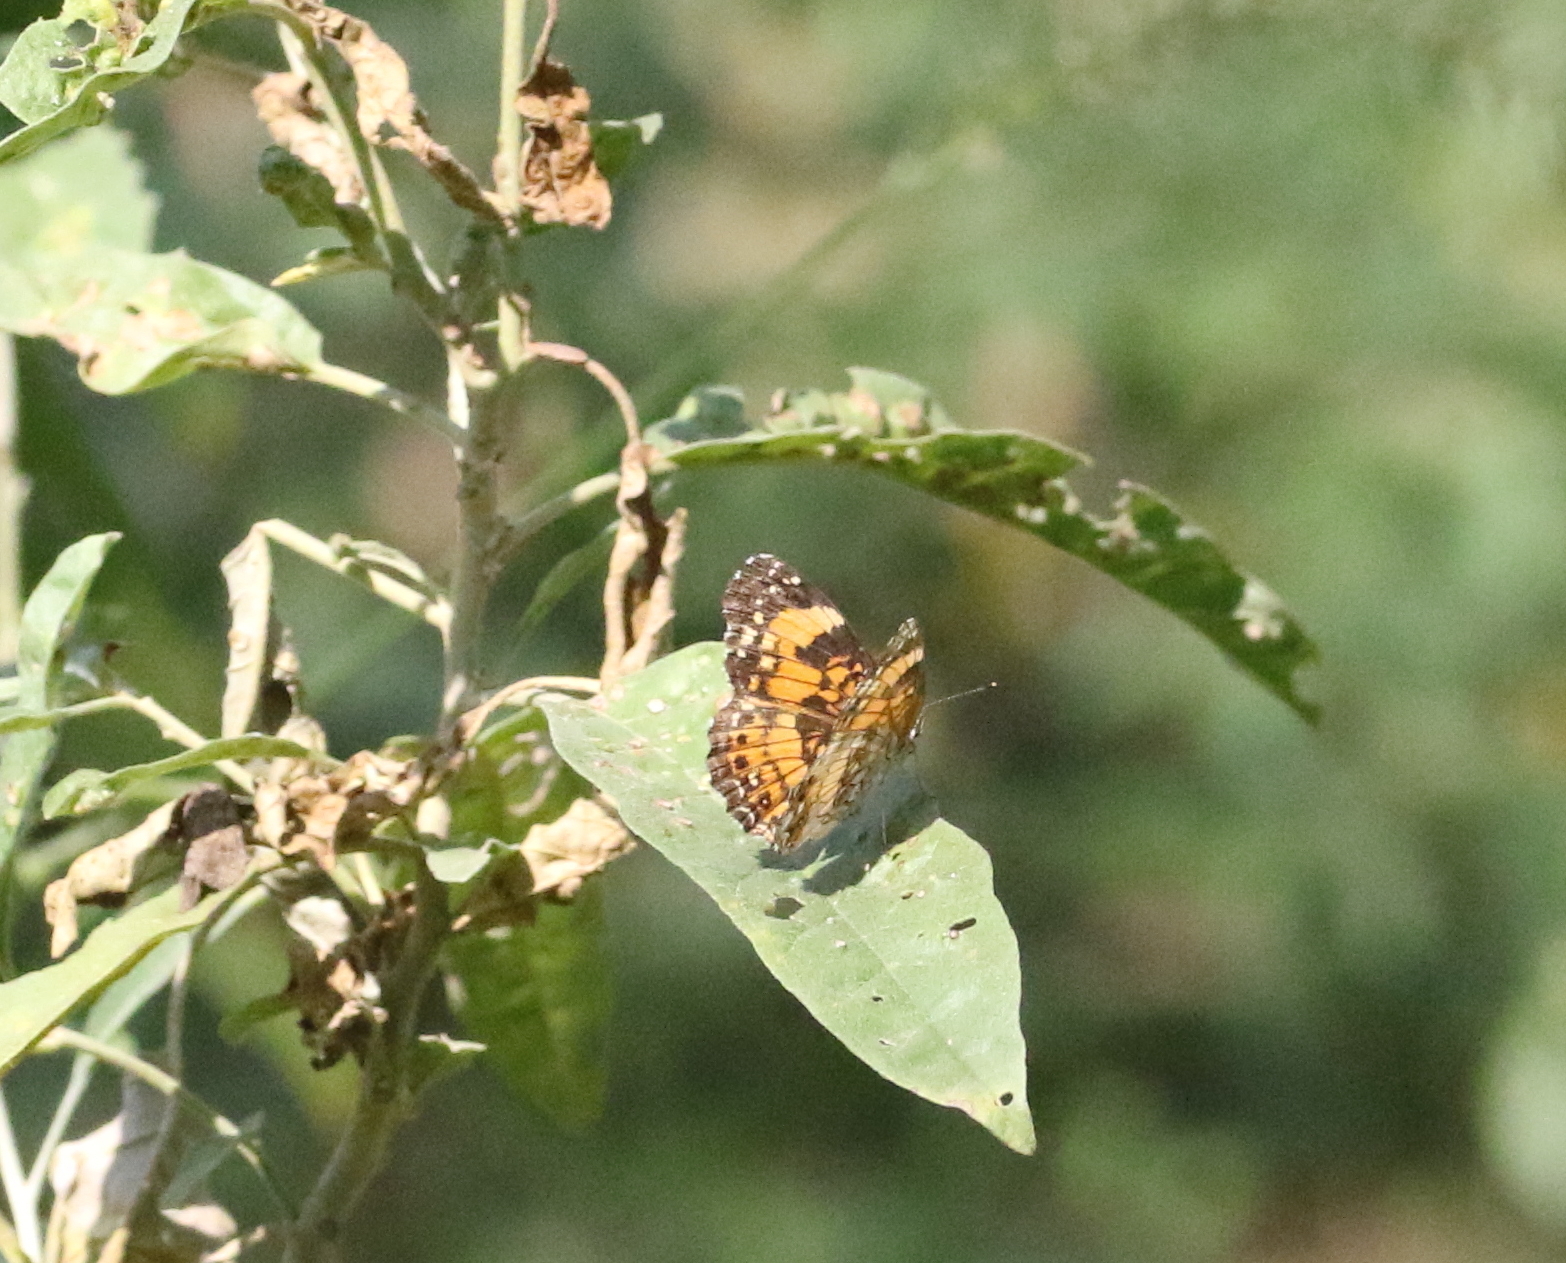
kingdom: Animalia
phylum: Arthropoda
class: Insecta
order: Lepidoptera
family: Nymphalidae
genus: Chlosyne
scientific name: Chlosyne nycteis
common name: Silvery checkerspot
